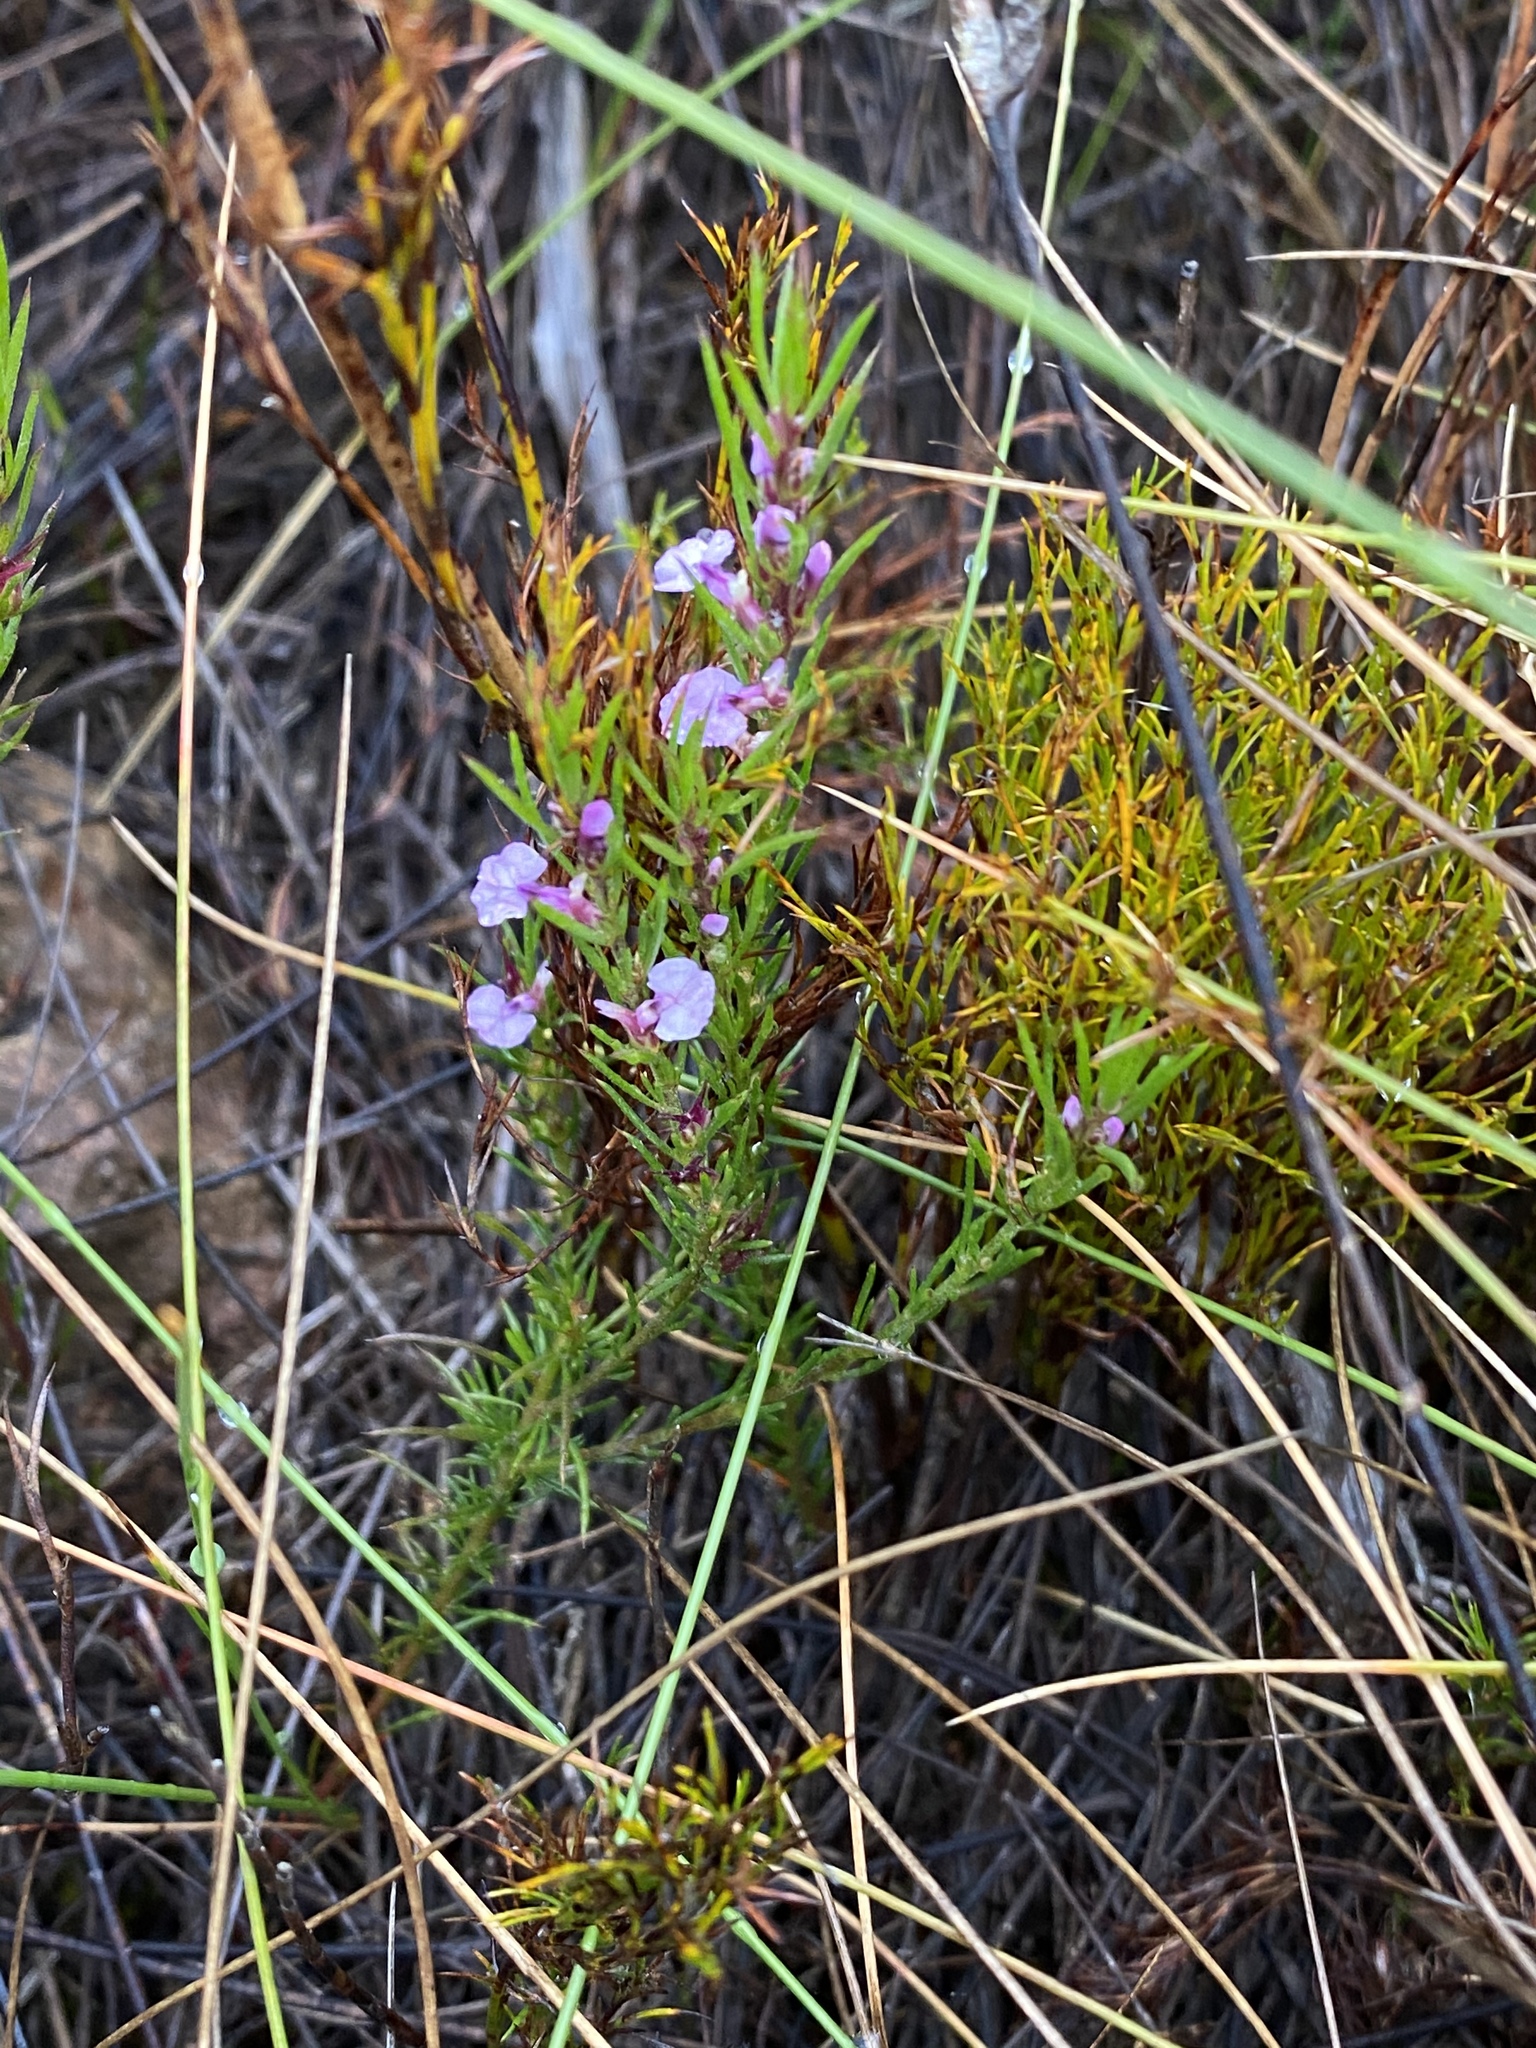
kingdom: Plantae
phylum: Tracheophyta
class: Magnoliopsida
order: Fabales
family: Polygalaceae
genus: Muraltia
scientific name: Muraltia hyssopifolia
